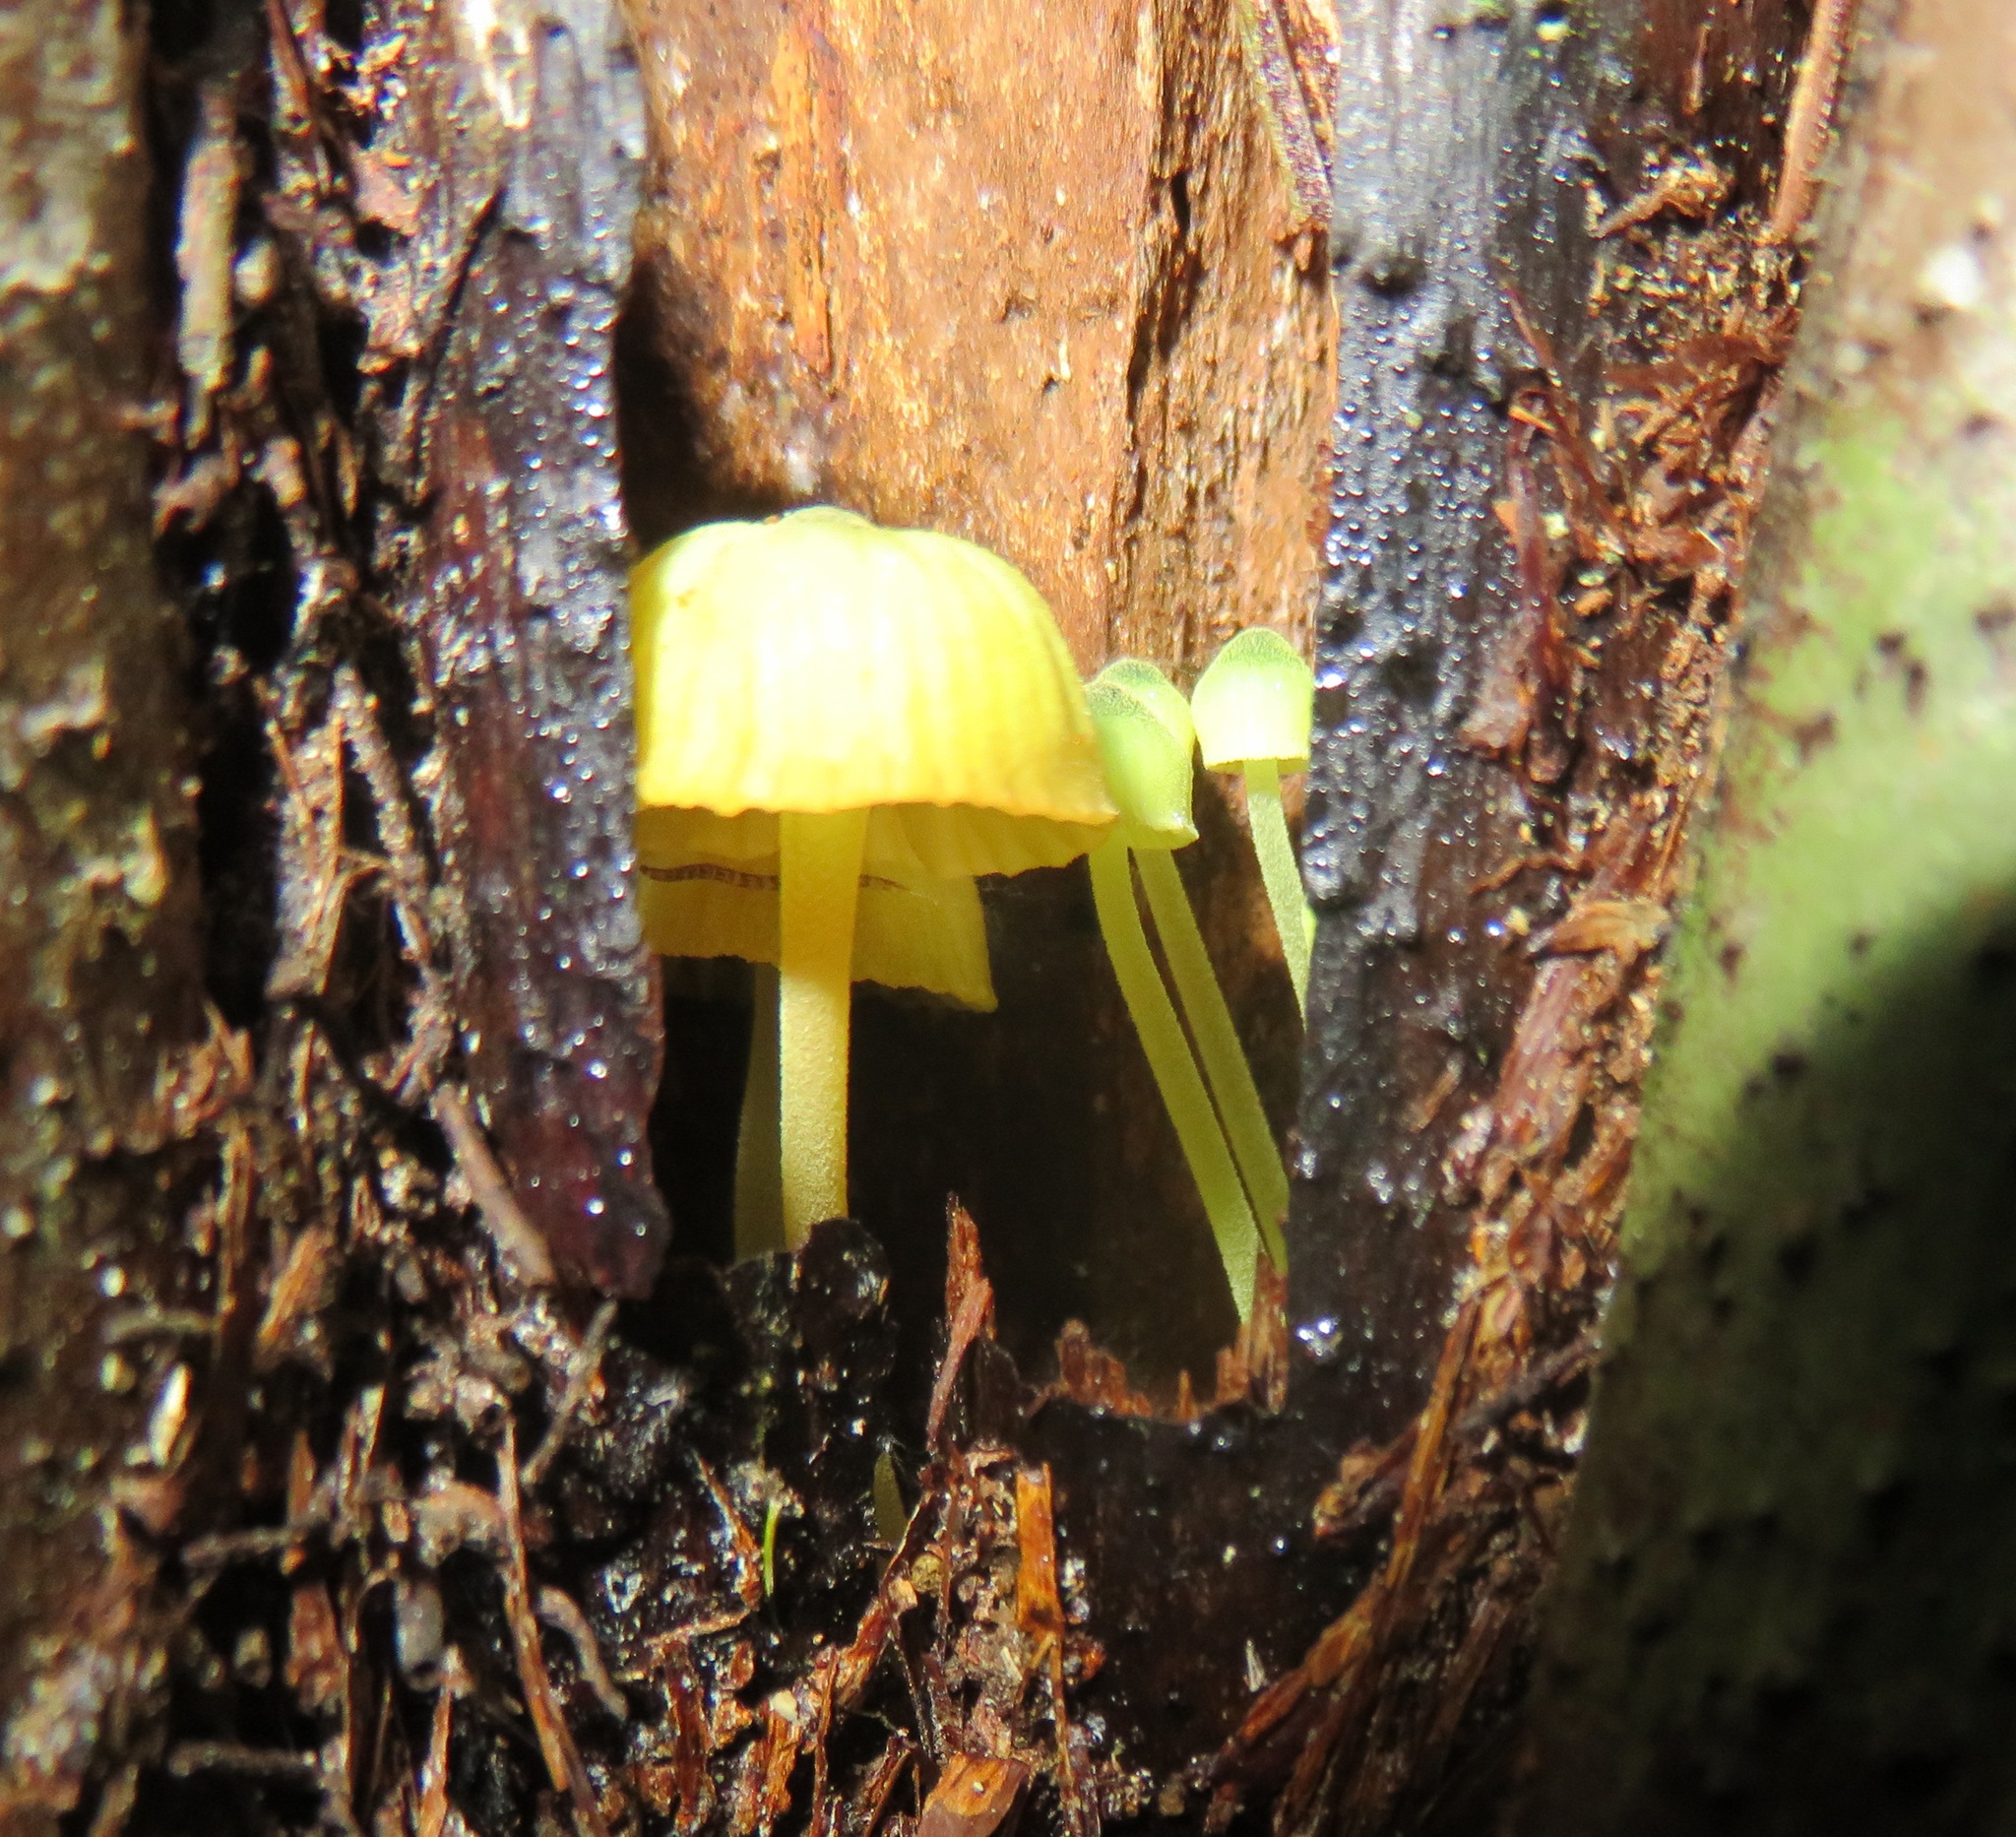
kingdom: Fungi
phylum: Basidiomycota
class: Agaricomycetes
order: Agaricales
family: Mycenaceae
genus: Insiticia
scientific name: Insiticia flavovirens
